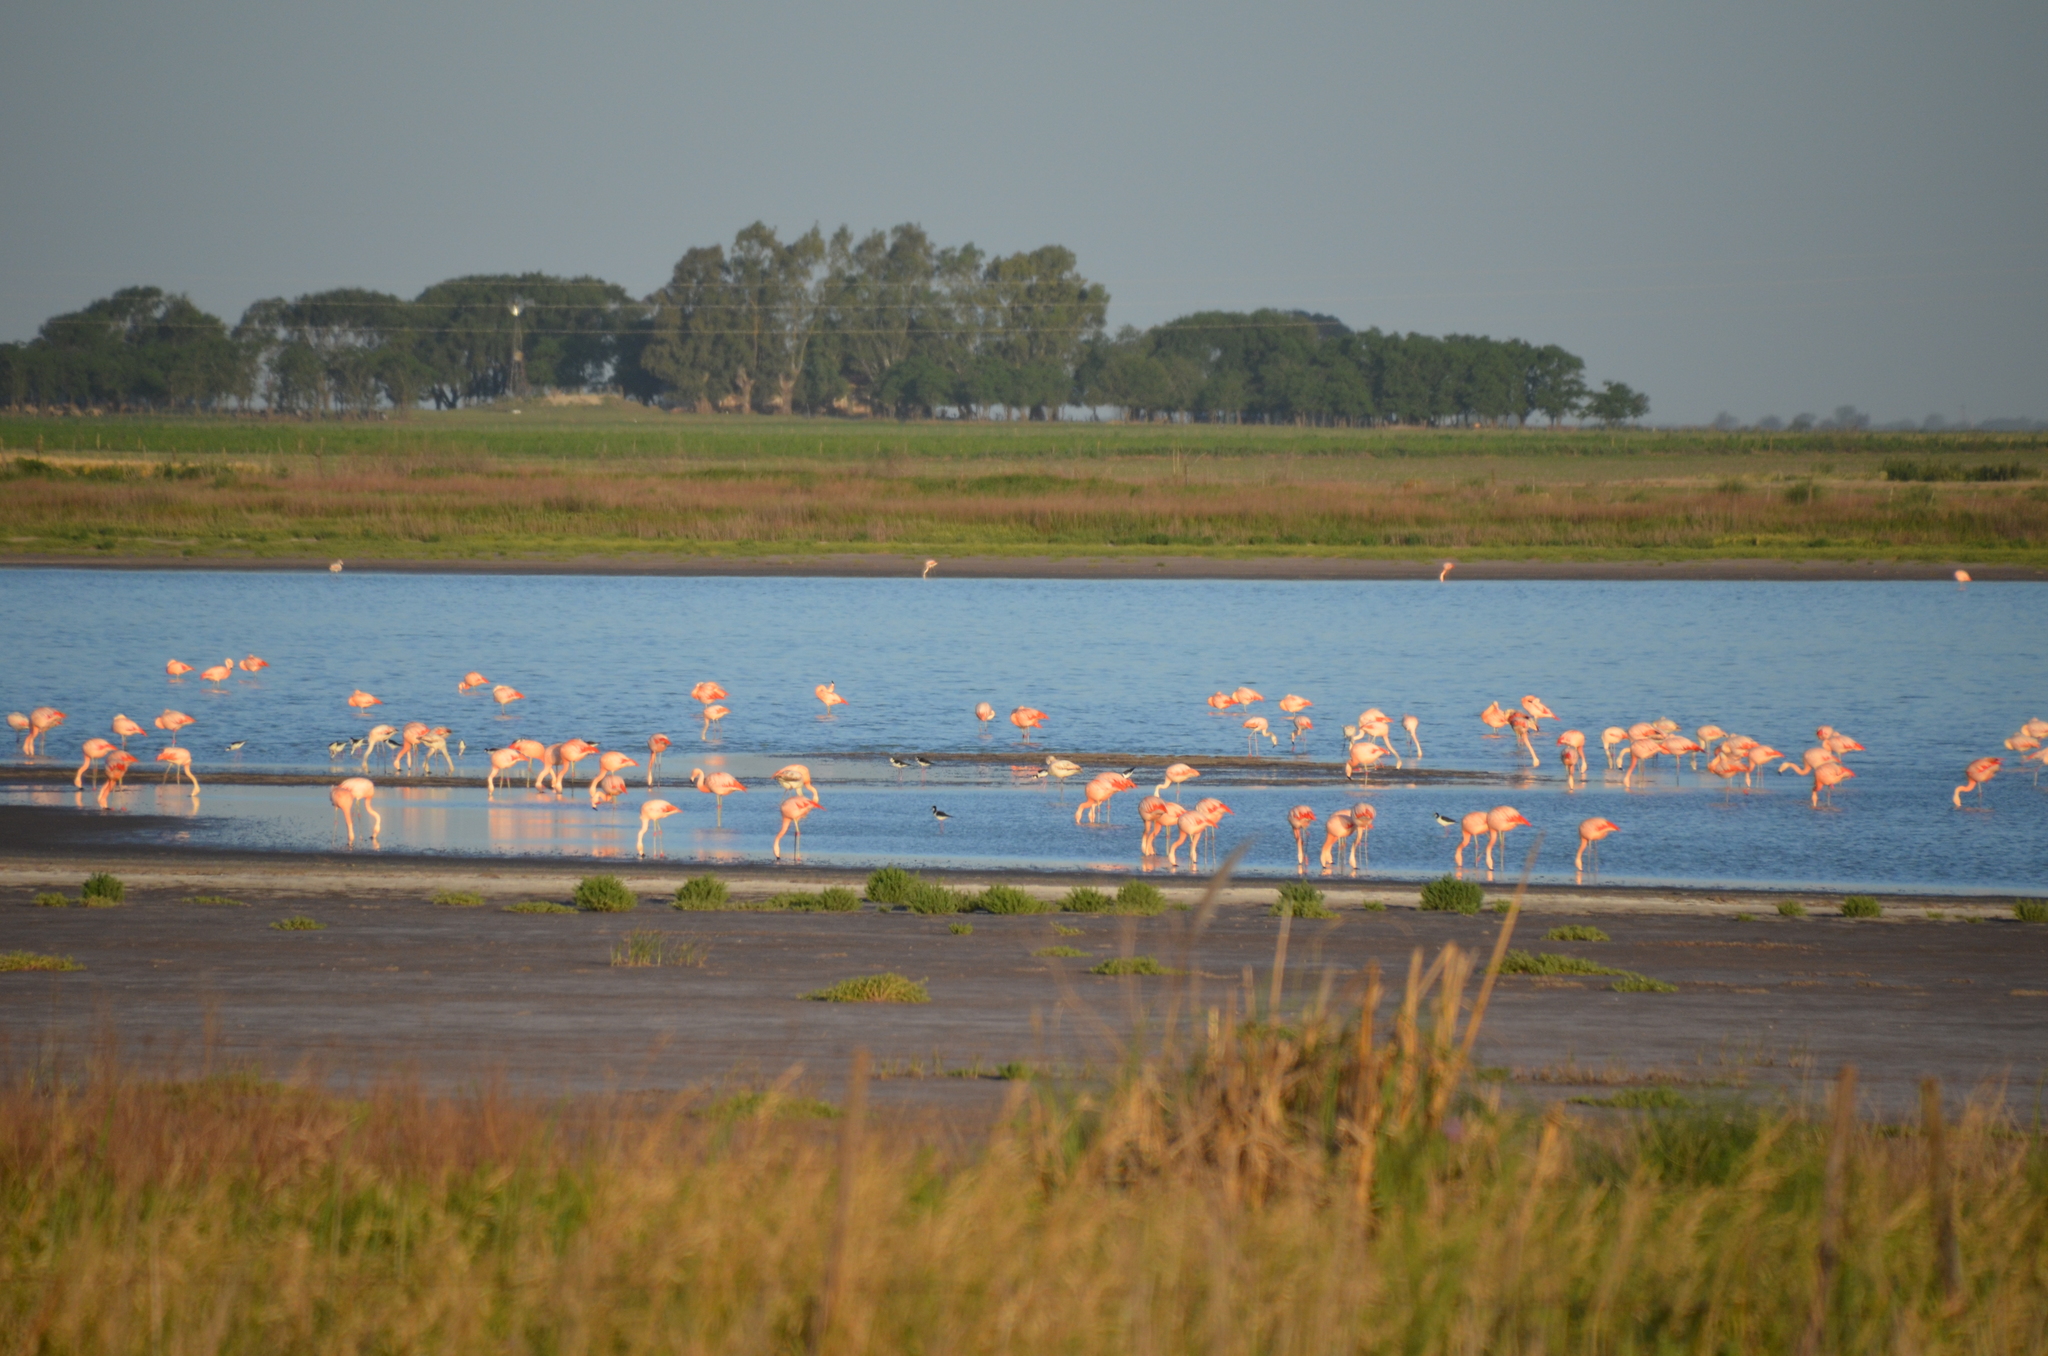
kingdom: Animalia
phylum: Chordata
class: Aves
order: Phoenicopteriformes
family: Phoenicopteridae
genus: Phoenicopterus
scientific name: Phoenicopterus chilensis
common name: Chilean flamingo
